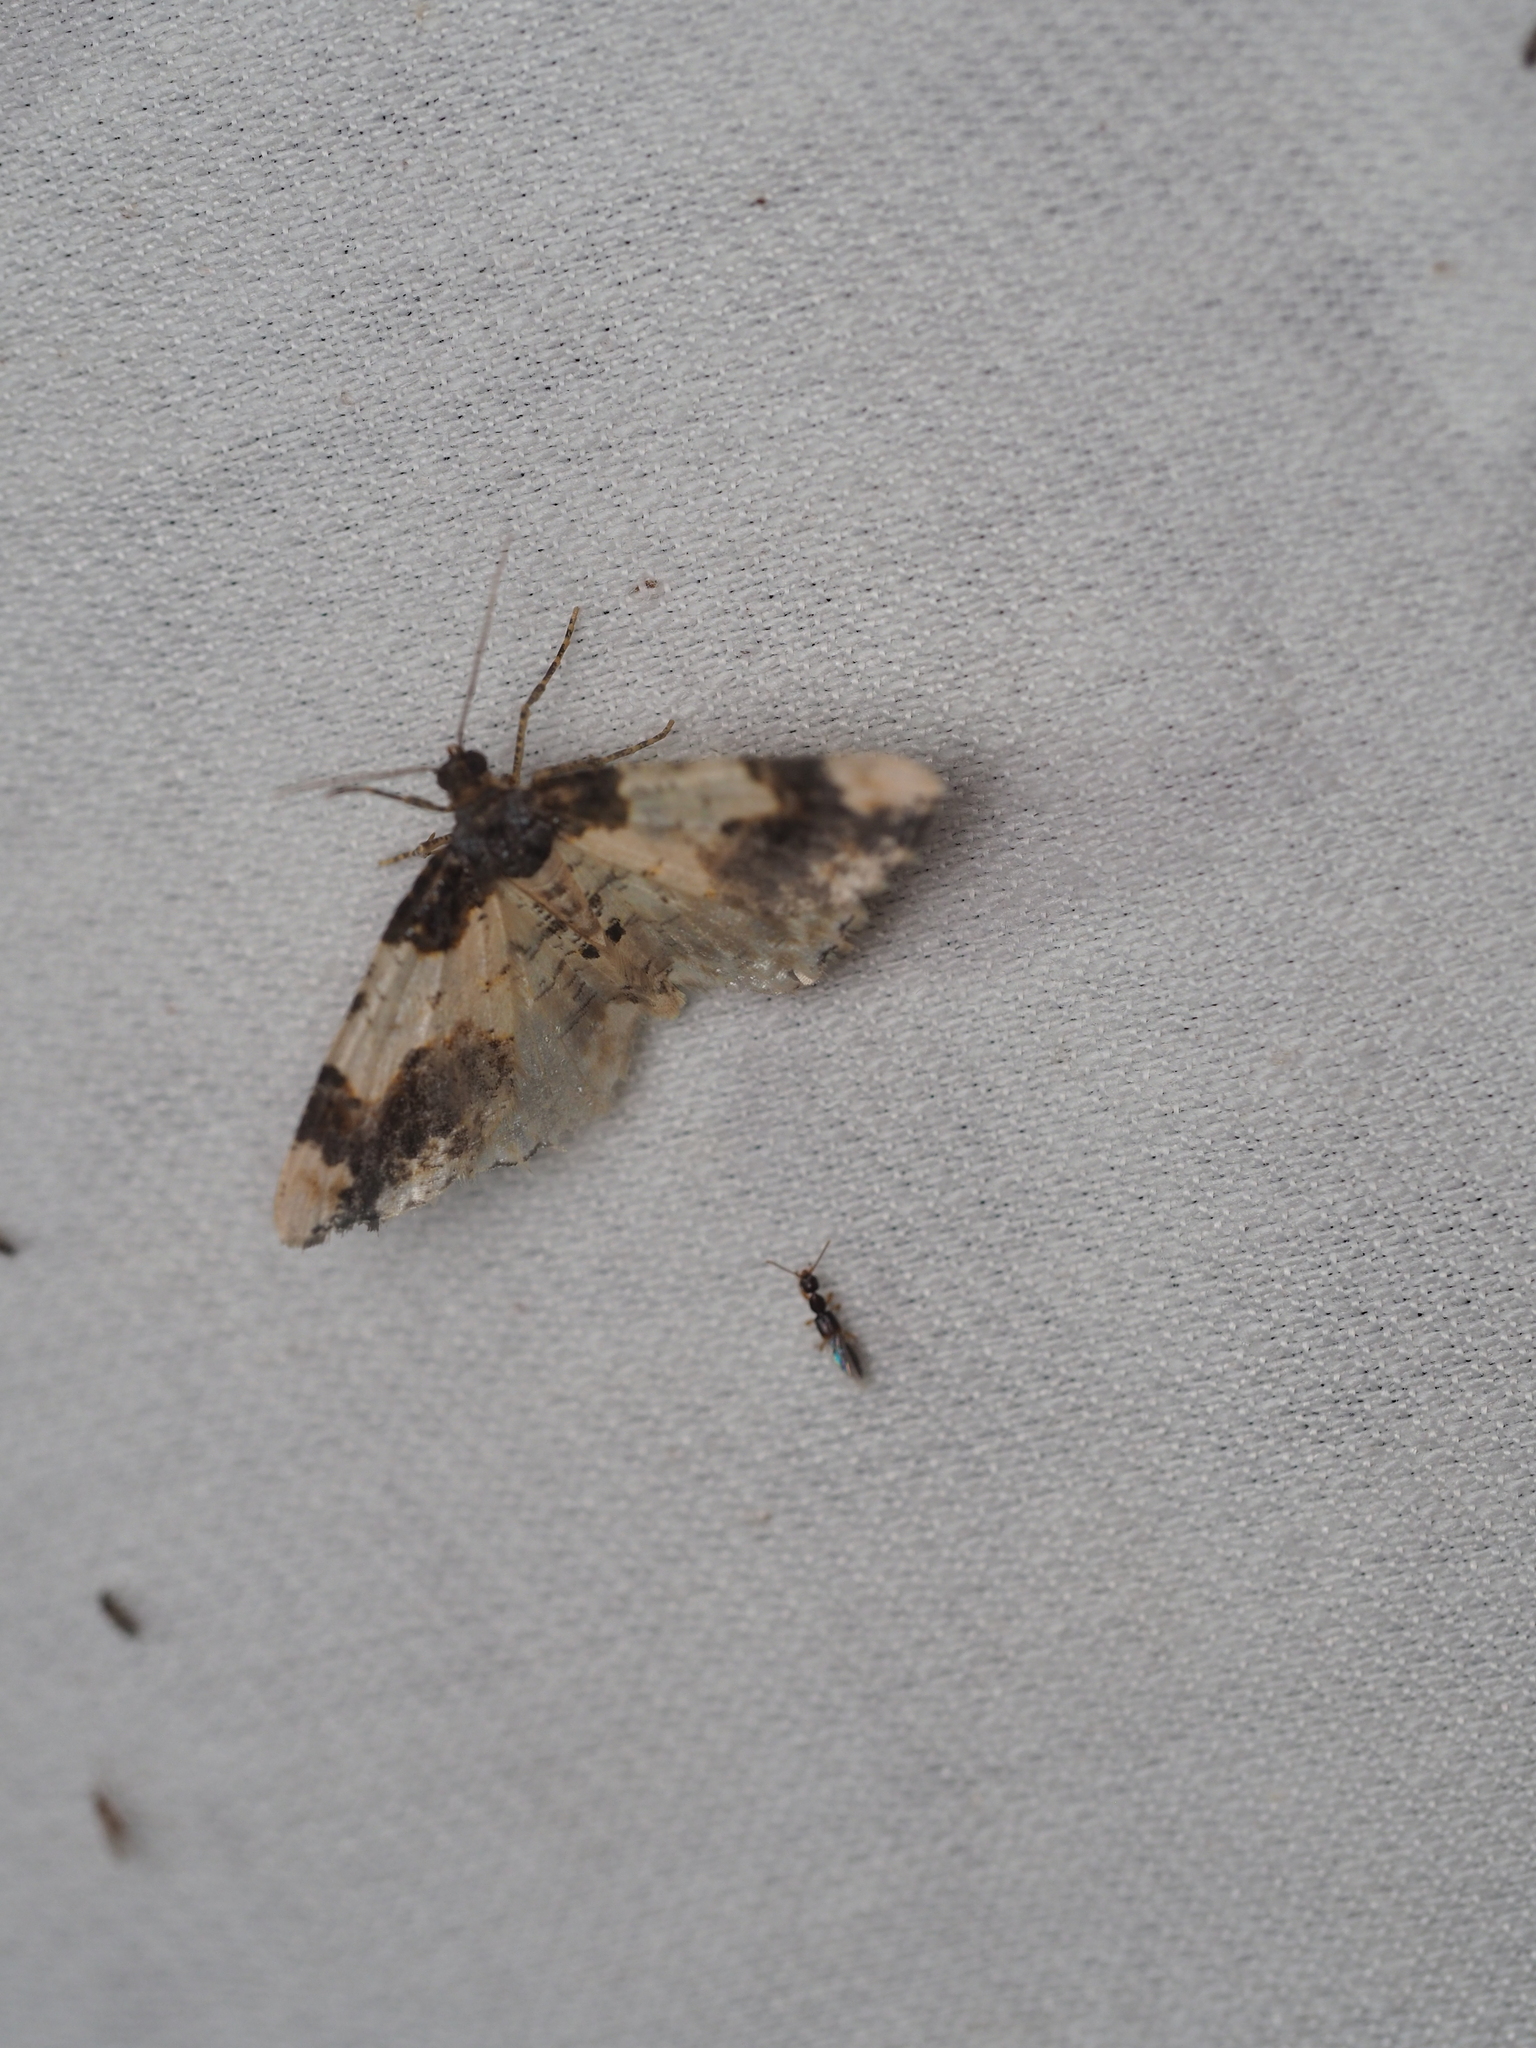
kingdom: Animalia
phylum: Arthropoda
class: Insecta
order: Lepidoptera
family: Geometridae
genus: Ligdia
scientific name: Ligdia adustata
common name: Scorched carpet
